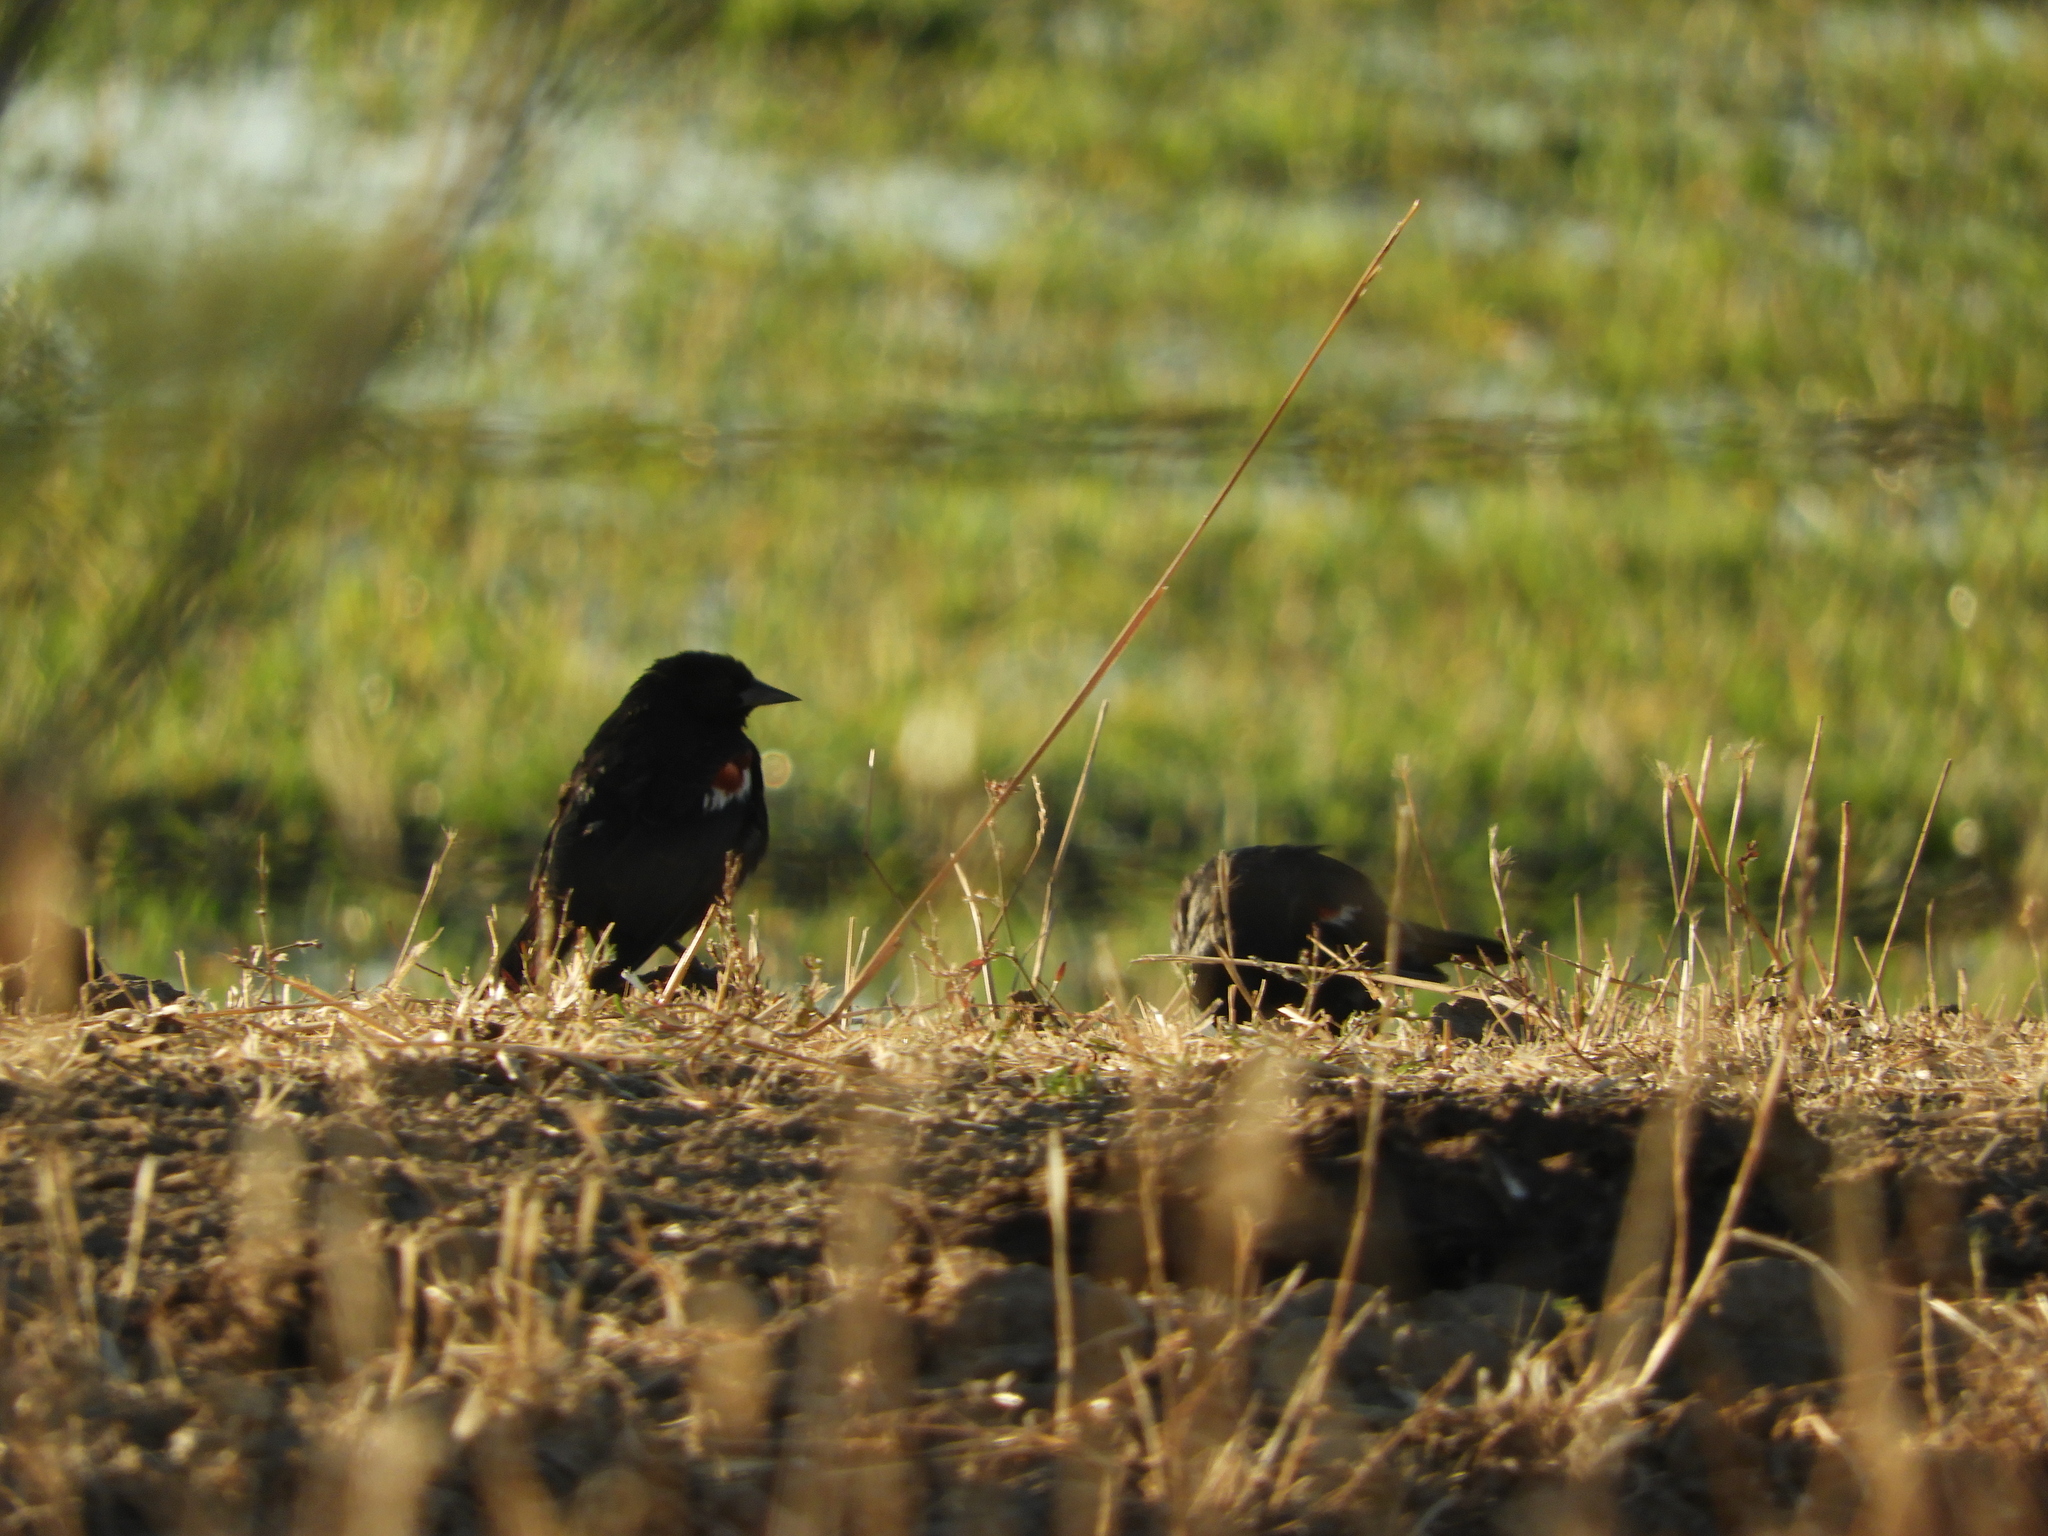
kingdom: Animalia
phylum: Chordata
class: Aves
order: Passeriformes
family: Icteridae
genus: Agelaius
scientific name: Agelaius tricolor
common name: Tricolored blackbird
